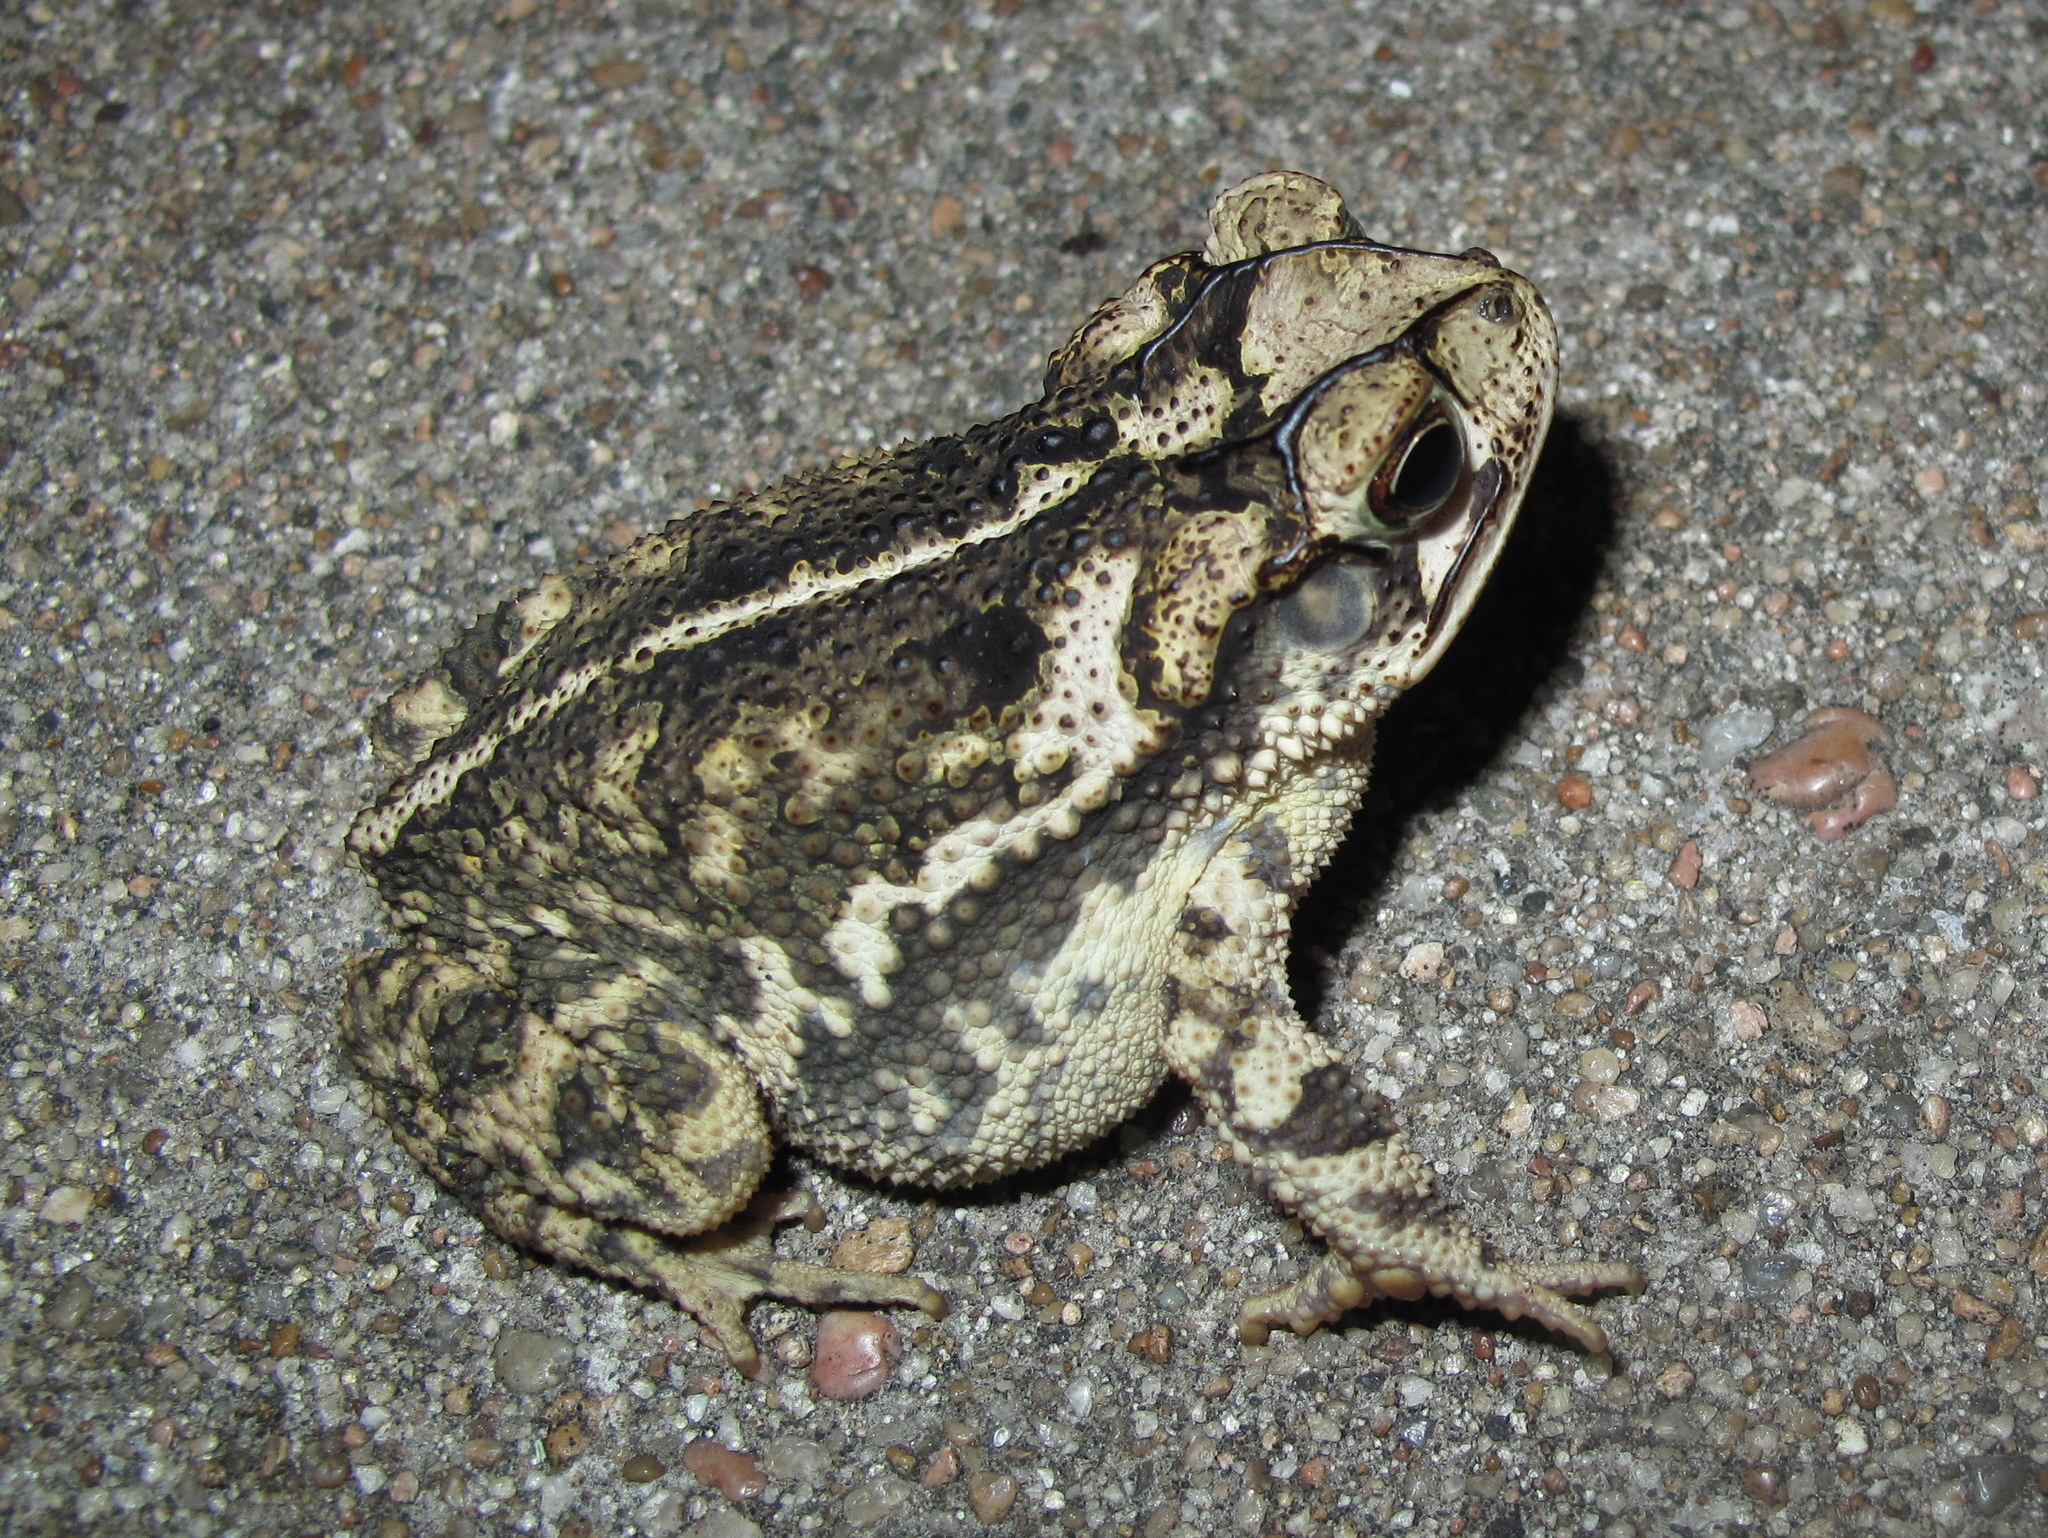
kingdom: Animalia
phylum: Chordata
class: Amphibia
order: Anura
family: Bufonidae
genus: Incilius
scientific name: Incilius nebulifer
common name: Gulf coast toad
